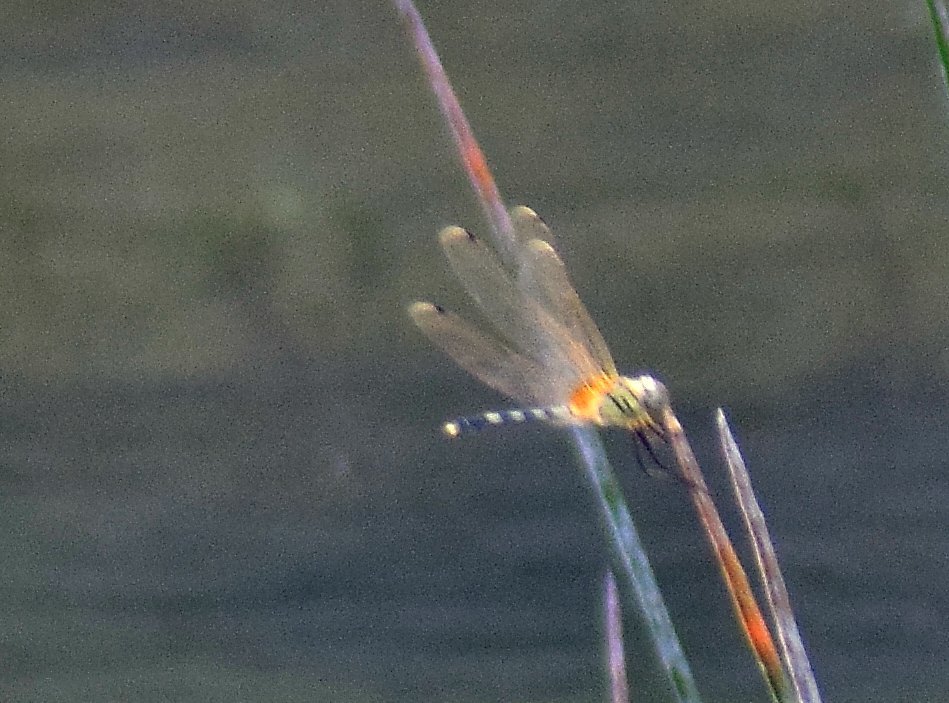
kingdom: Animalia
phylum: Arthropoda
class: Insecta
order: Odonata
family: Libellulidae
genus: Trithemis
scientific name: Trithemis pallidinervis
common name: Dancing dropwing
